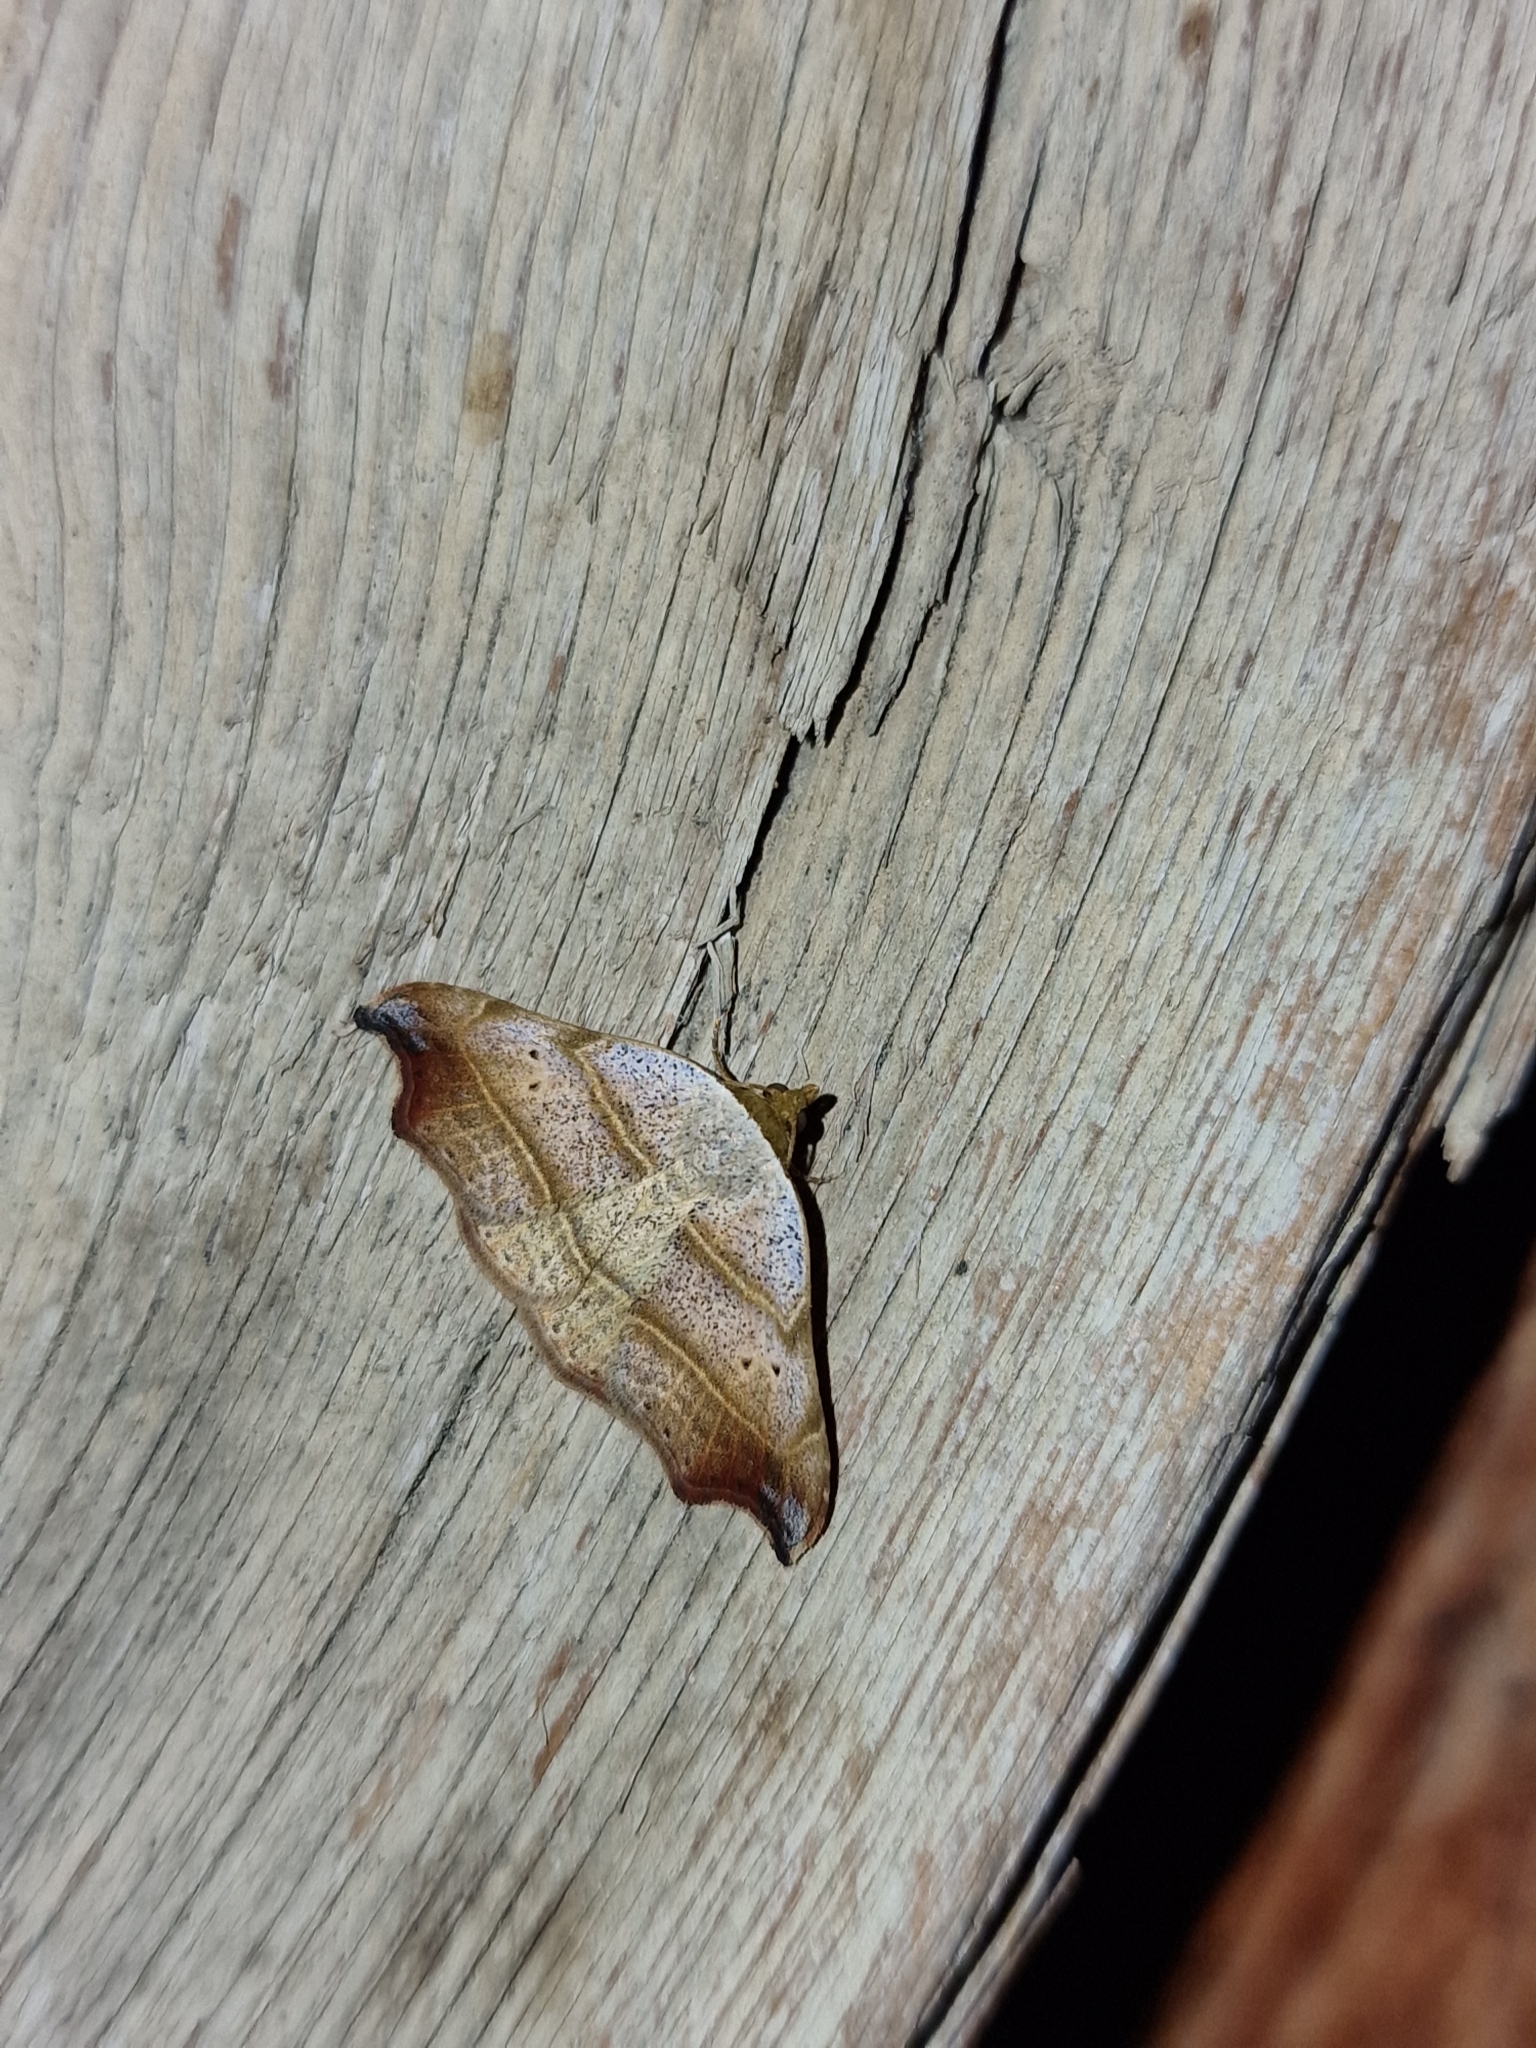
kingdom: Animalia
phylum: Arthropoda
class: Insecta
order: Lepidoptera
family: Erebidae
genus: Laspeyria
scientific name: Laspeyria flexula
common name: Beautiful hook-tip
